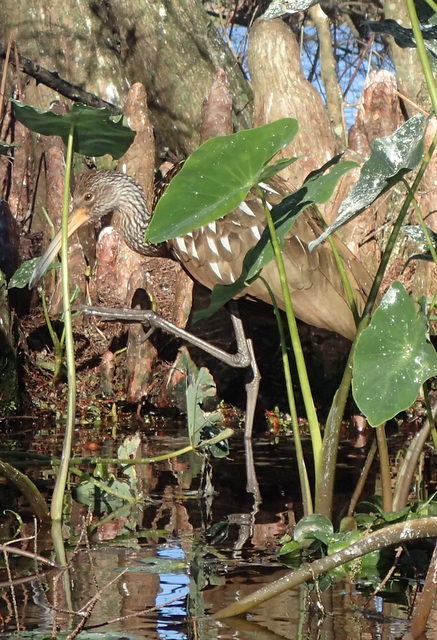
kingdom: Animalia
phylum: Chordata
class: Aves
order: Gruiformes
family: Aramidae
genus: Aramus
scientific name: Aramus guarauna
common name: Limpkin
